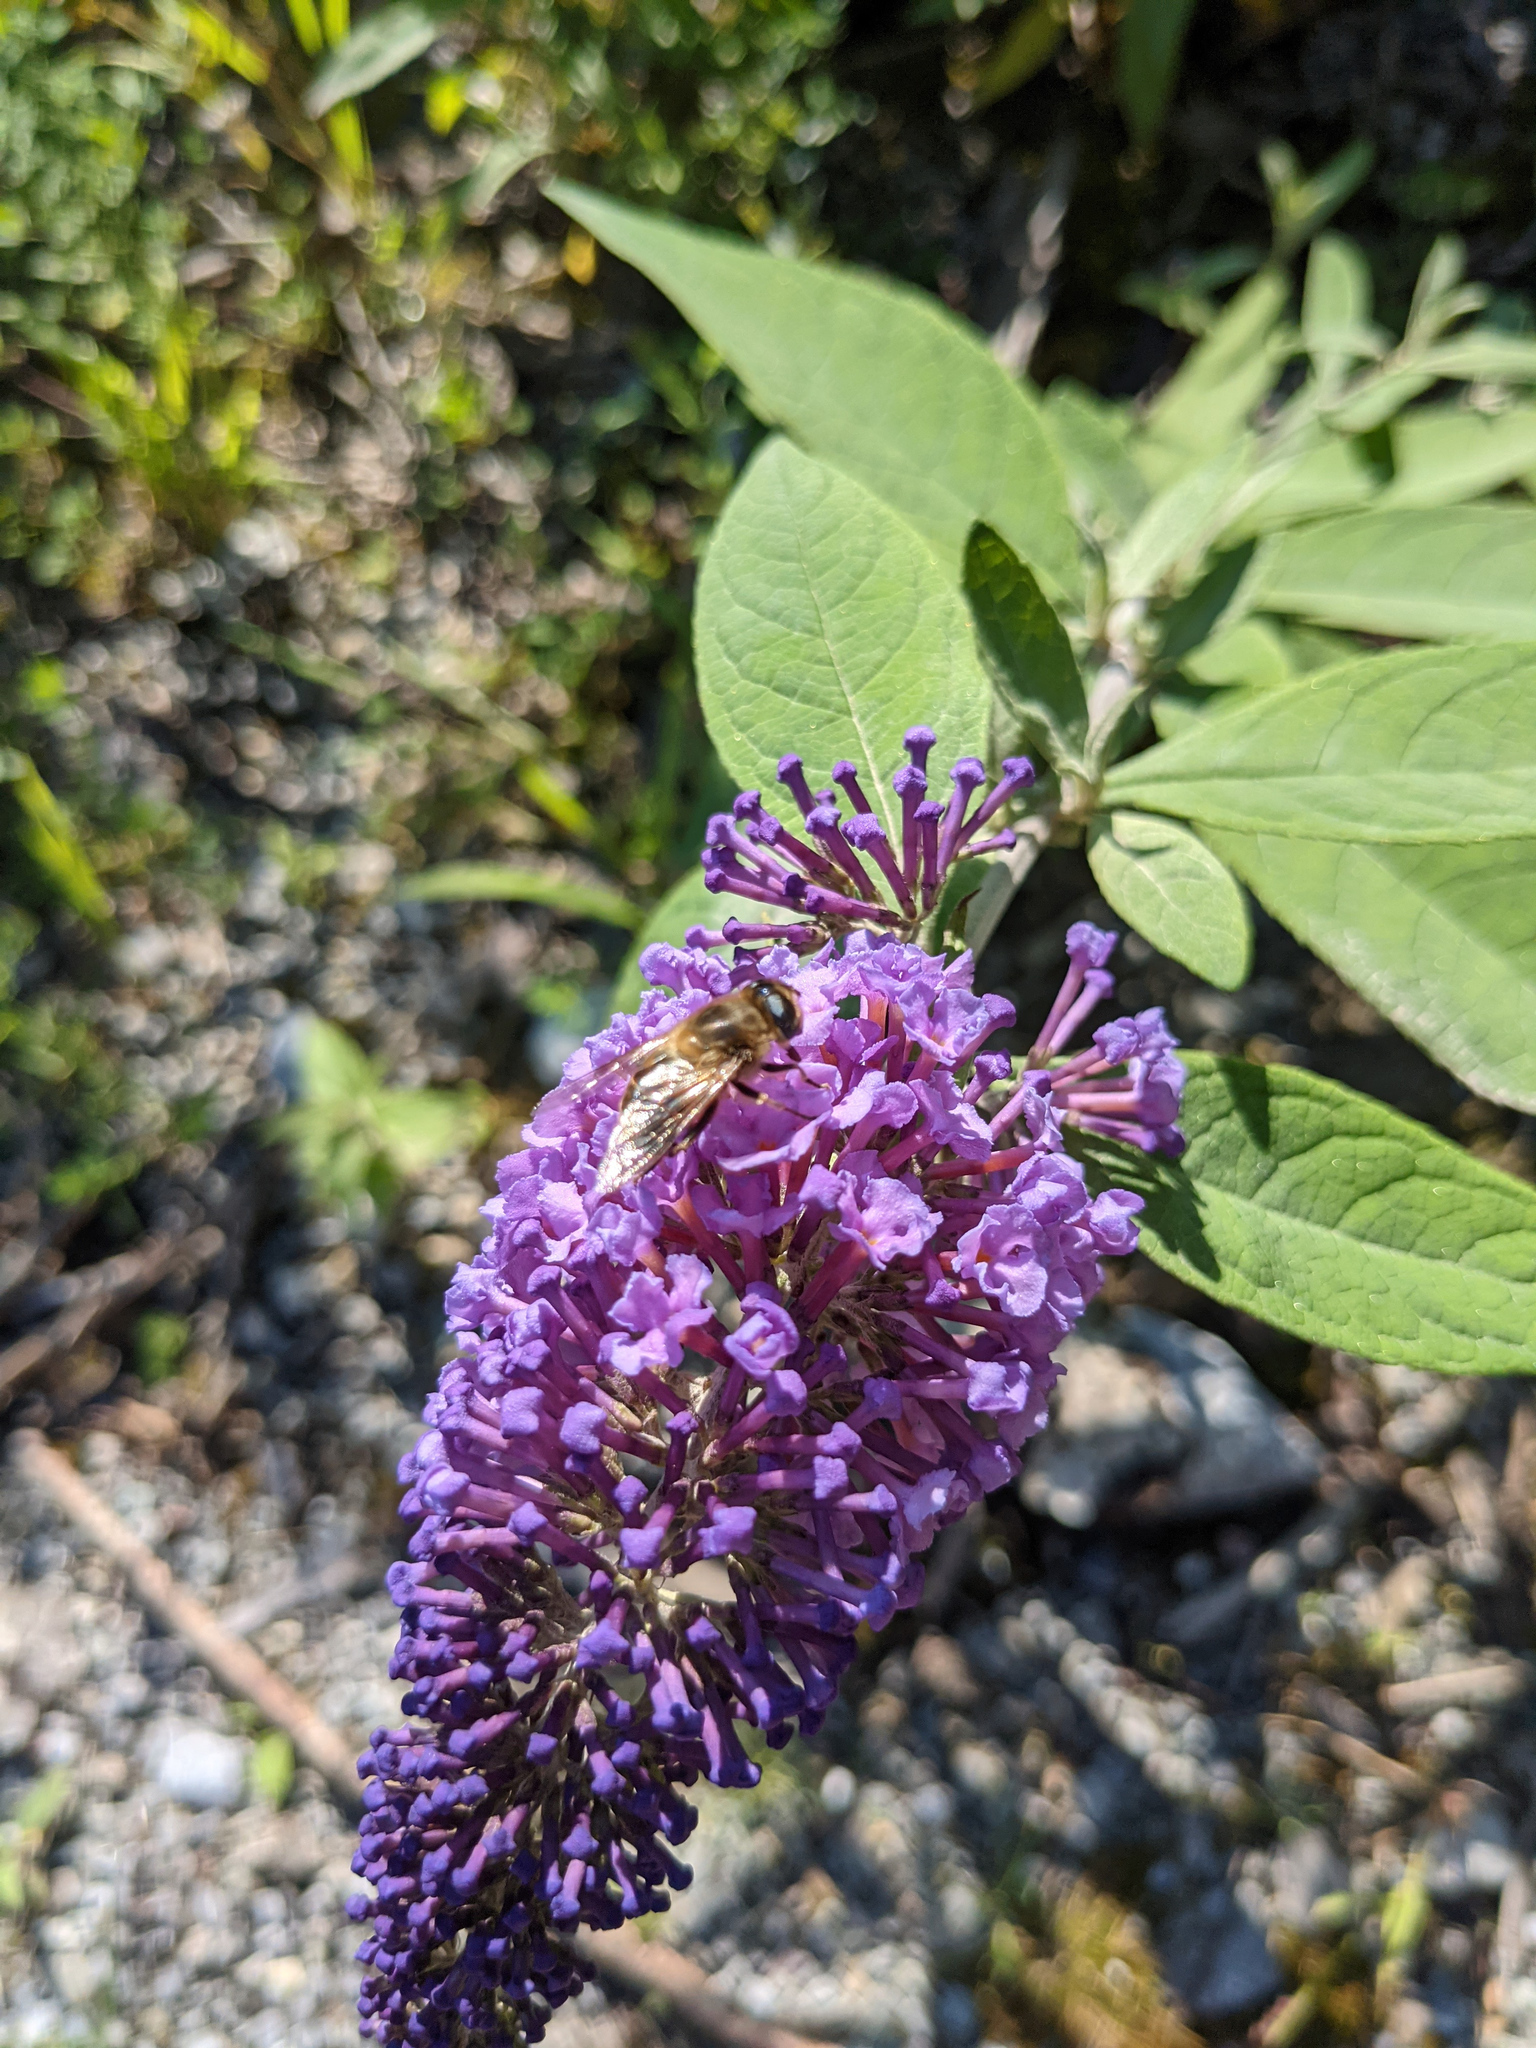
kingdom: Plantae
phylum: Tracheophyta
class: Magnoliopsida
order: Lamiales
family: Scrophulariaceae
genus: Buddleja
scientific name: Buddleja davidii
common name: Butterfly-bush
